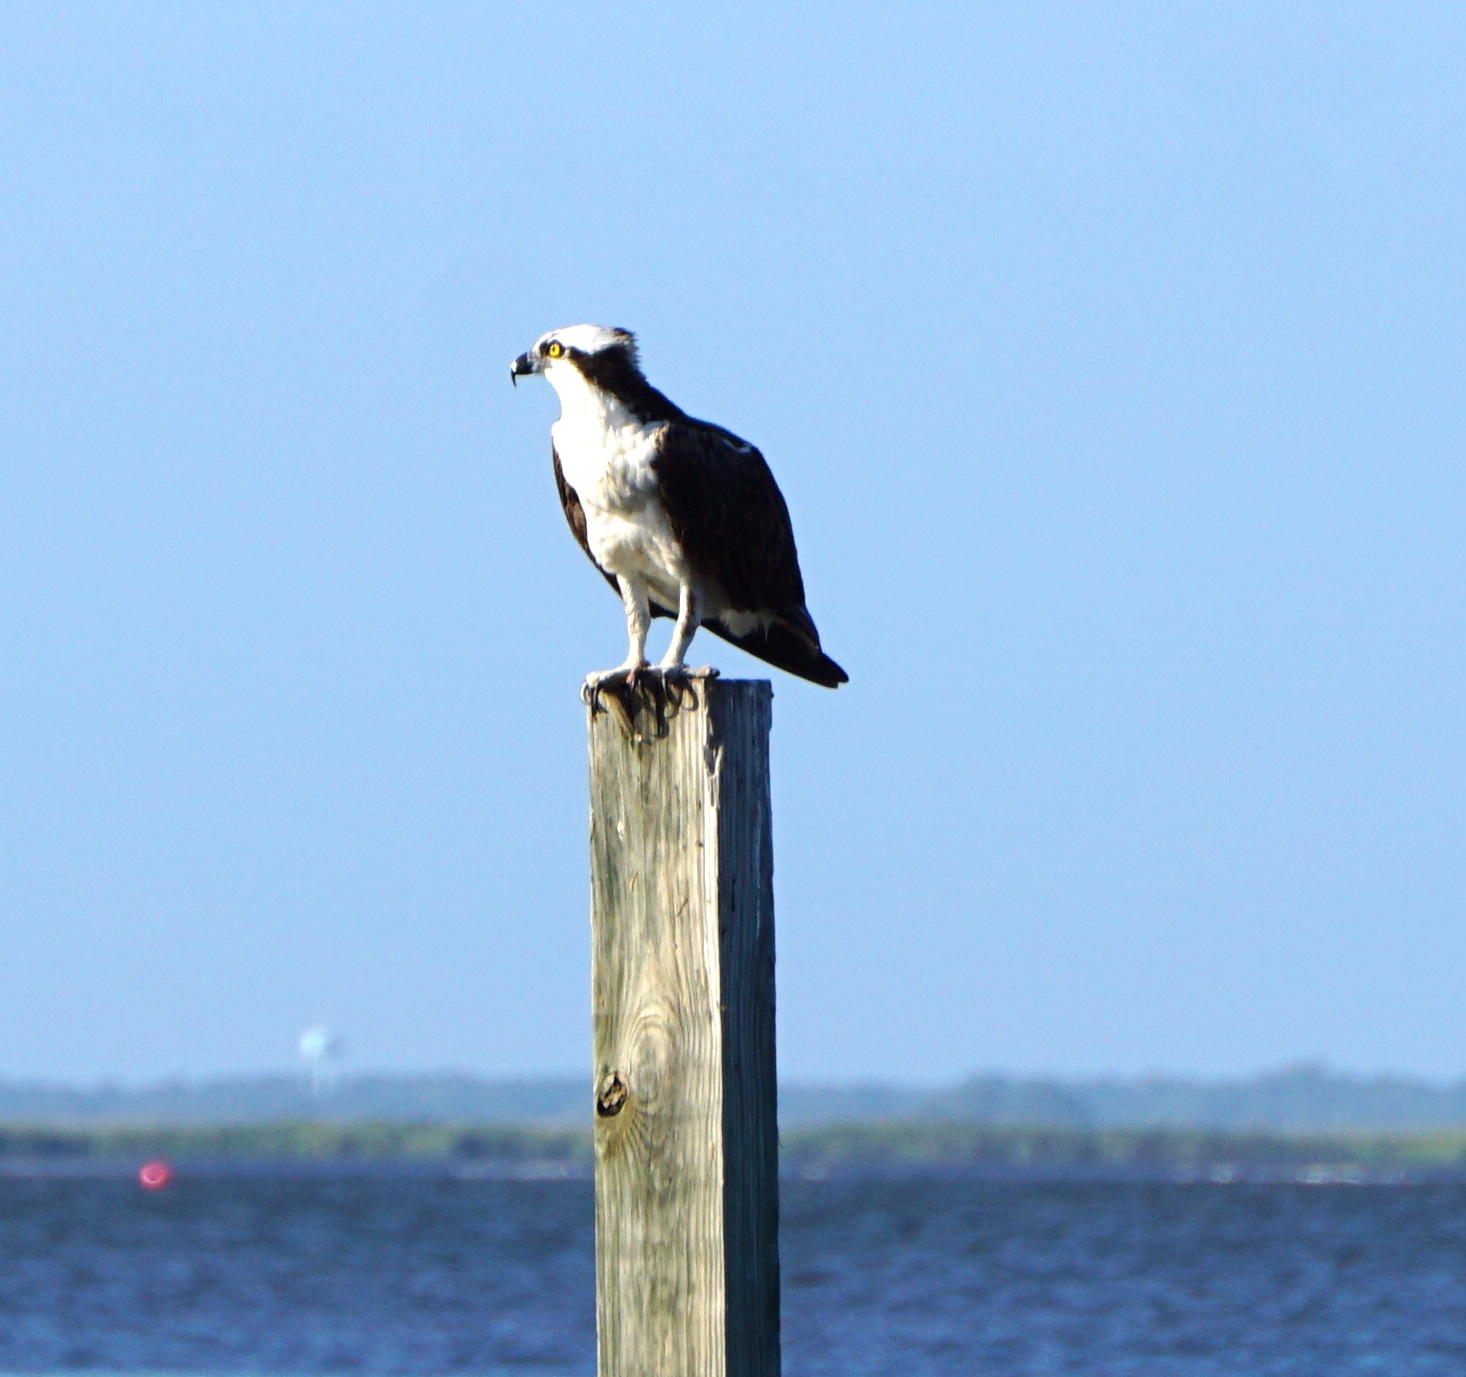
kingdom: Animalia
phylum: Chordata
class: Aves
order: Accipitriformes
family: Pandionidae
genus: Pandion
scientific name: Pandion haliaetus
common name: Osprey
